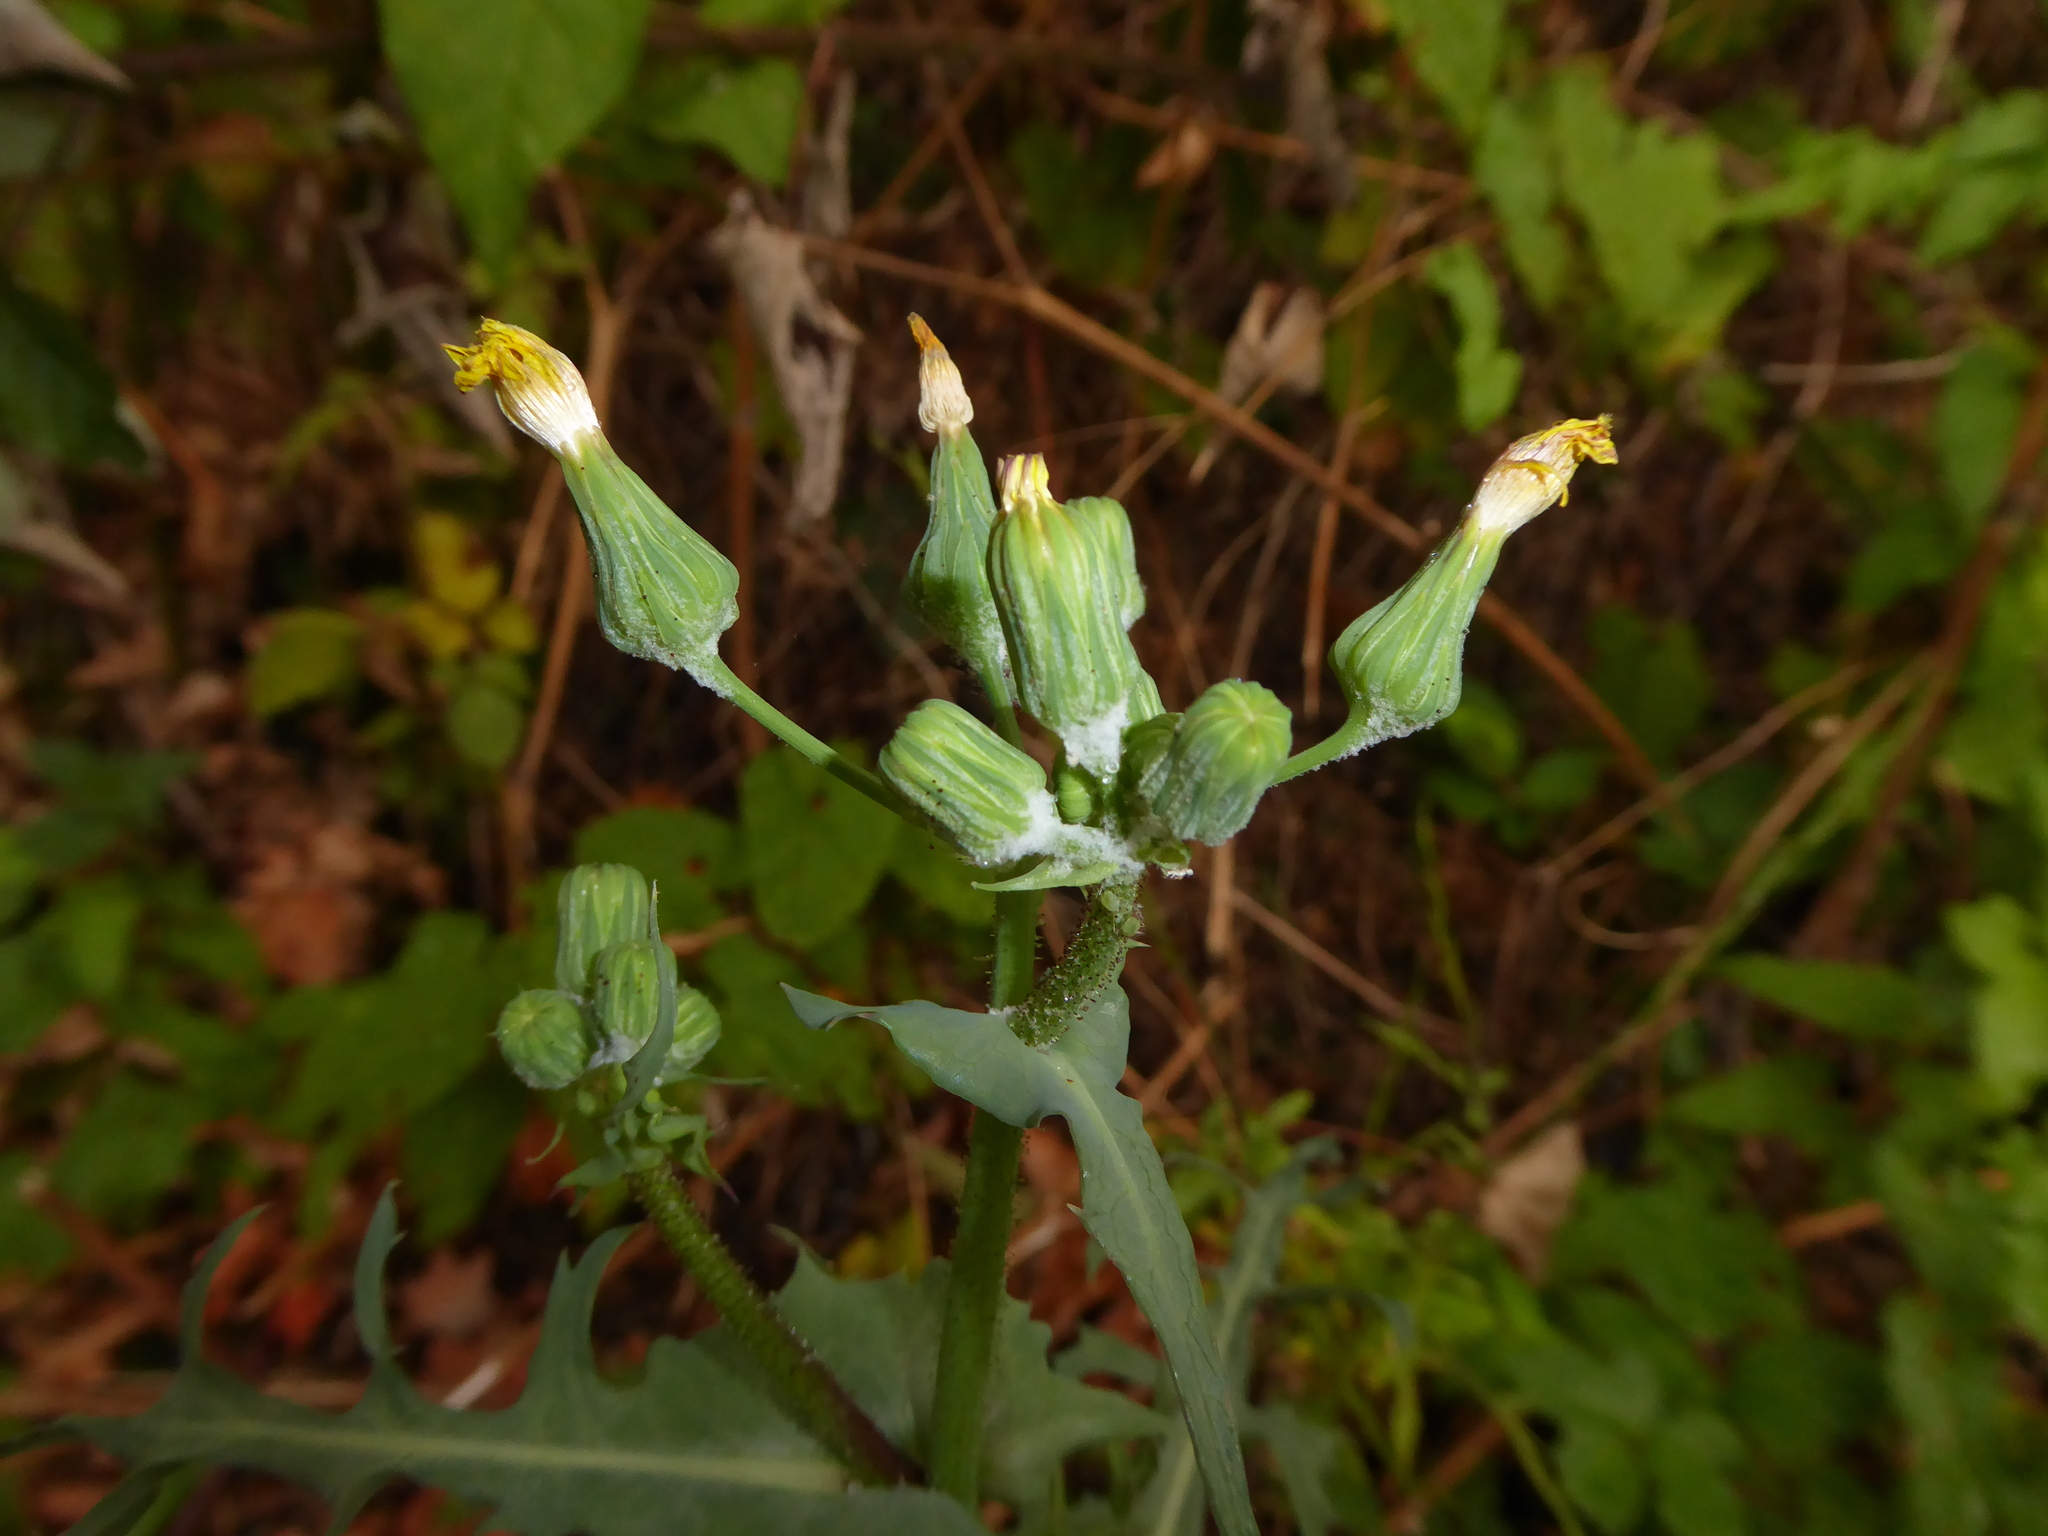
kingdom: Plantae
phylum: Tracheophyta
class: Magnoliopsida
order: Asterales
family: Asteraceae
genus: Sonchus
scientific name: Sonchus oleraceus
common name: Common sowthistle
